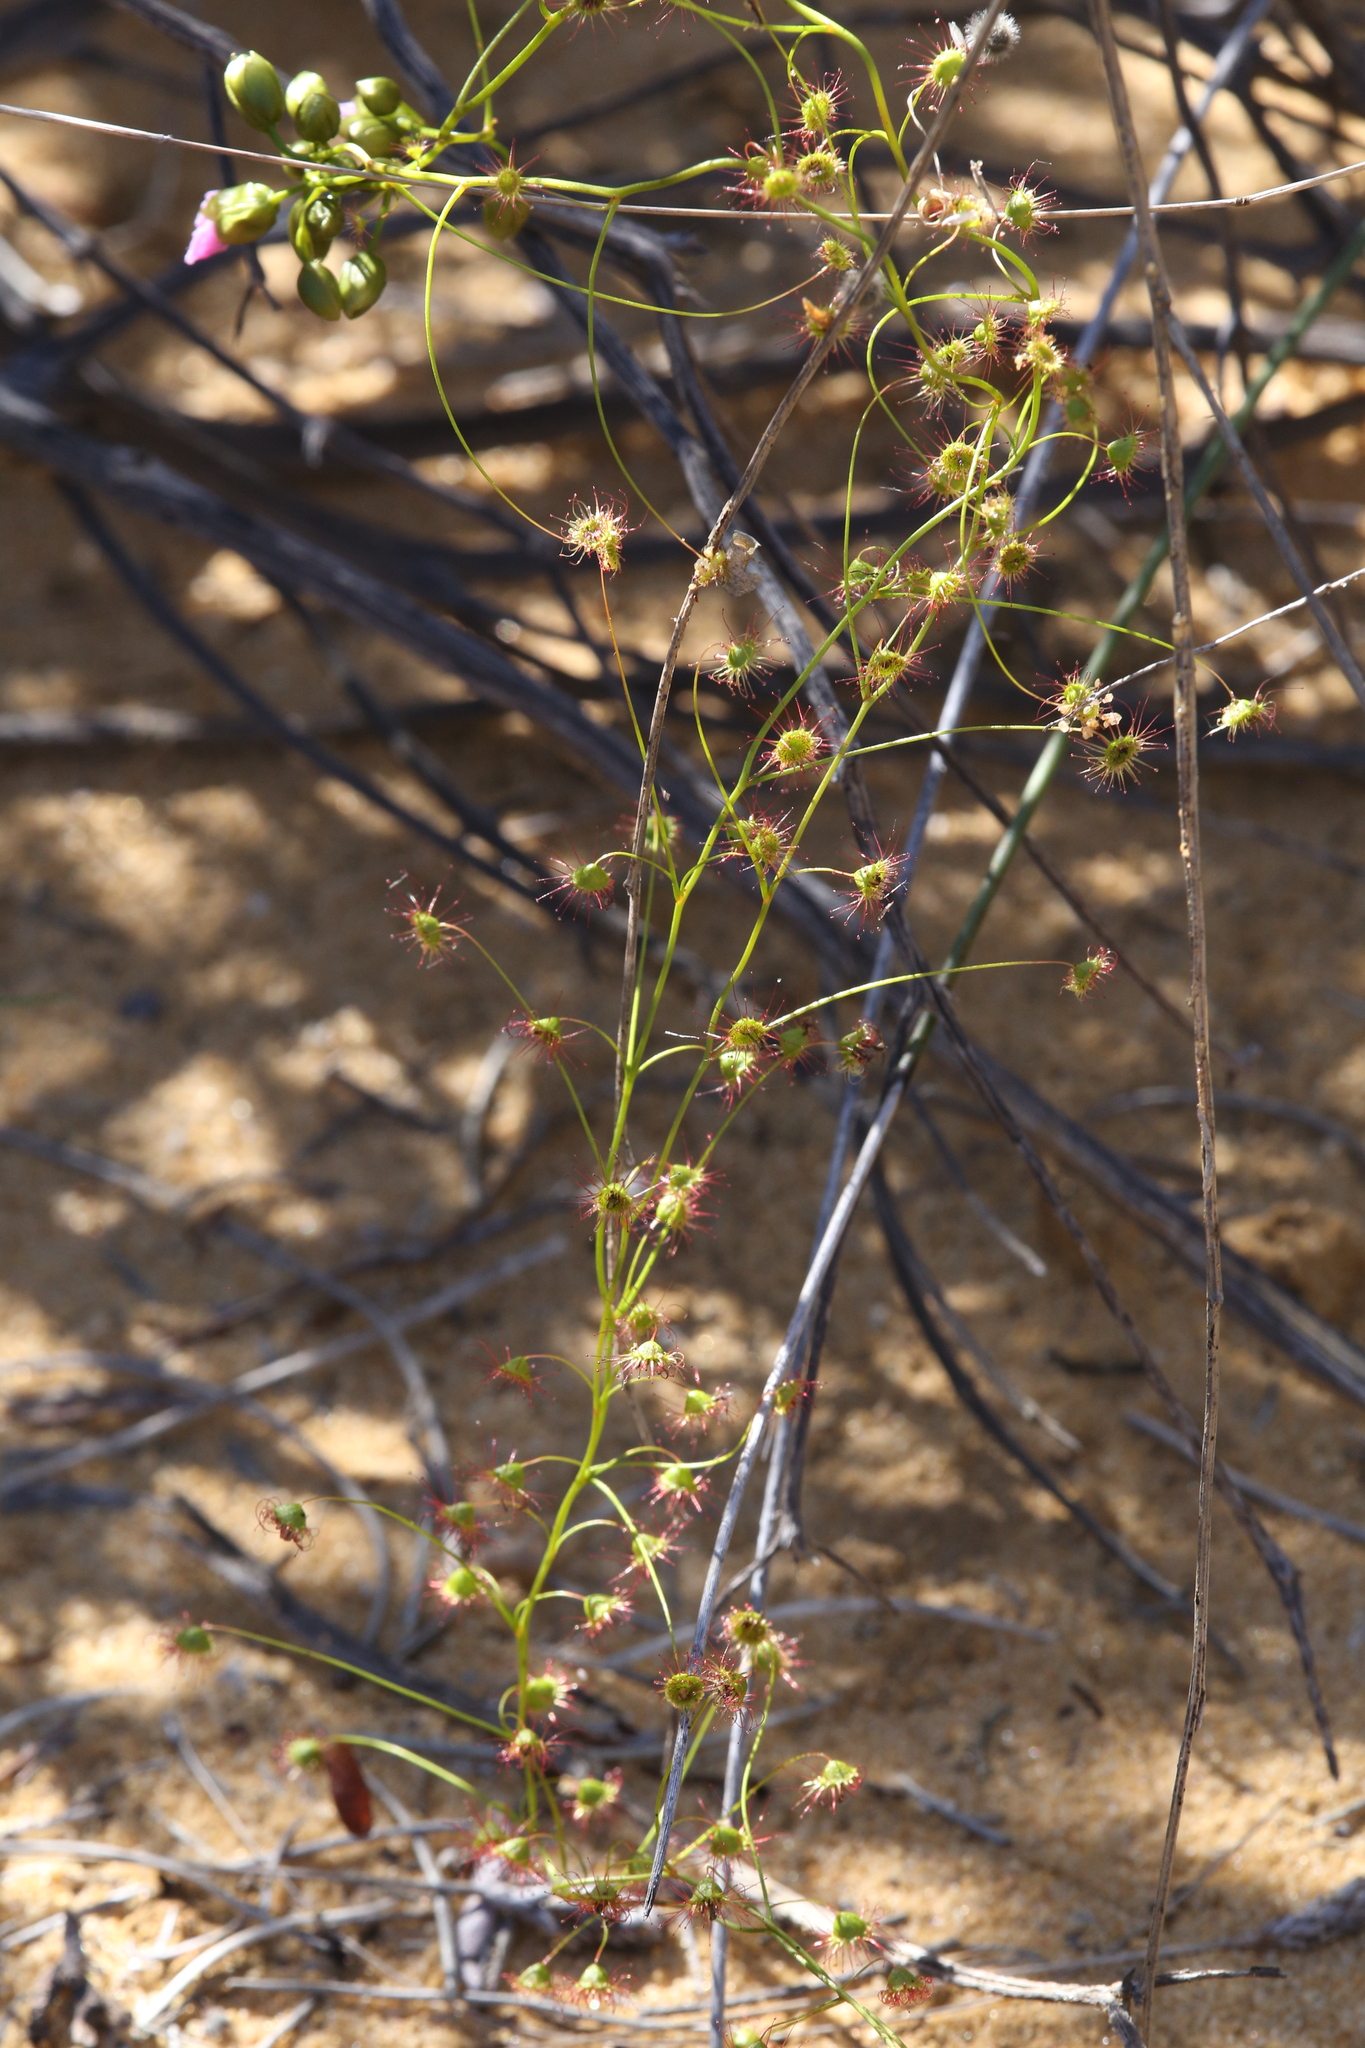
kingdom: Plantae
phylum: Tracheophyta
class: Magnoliopsida
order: Caryophyllales
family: Droseraceae
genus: Drosera
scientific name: Drosera menziesii
